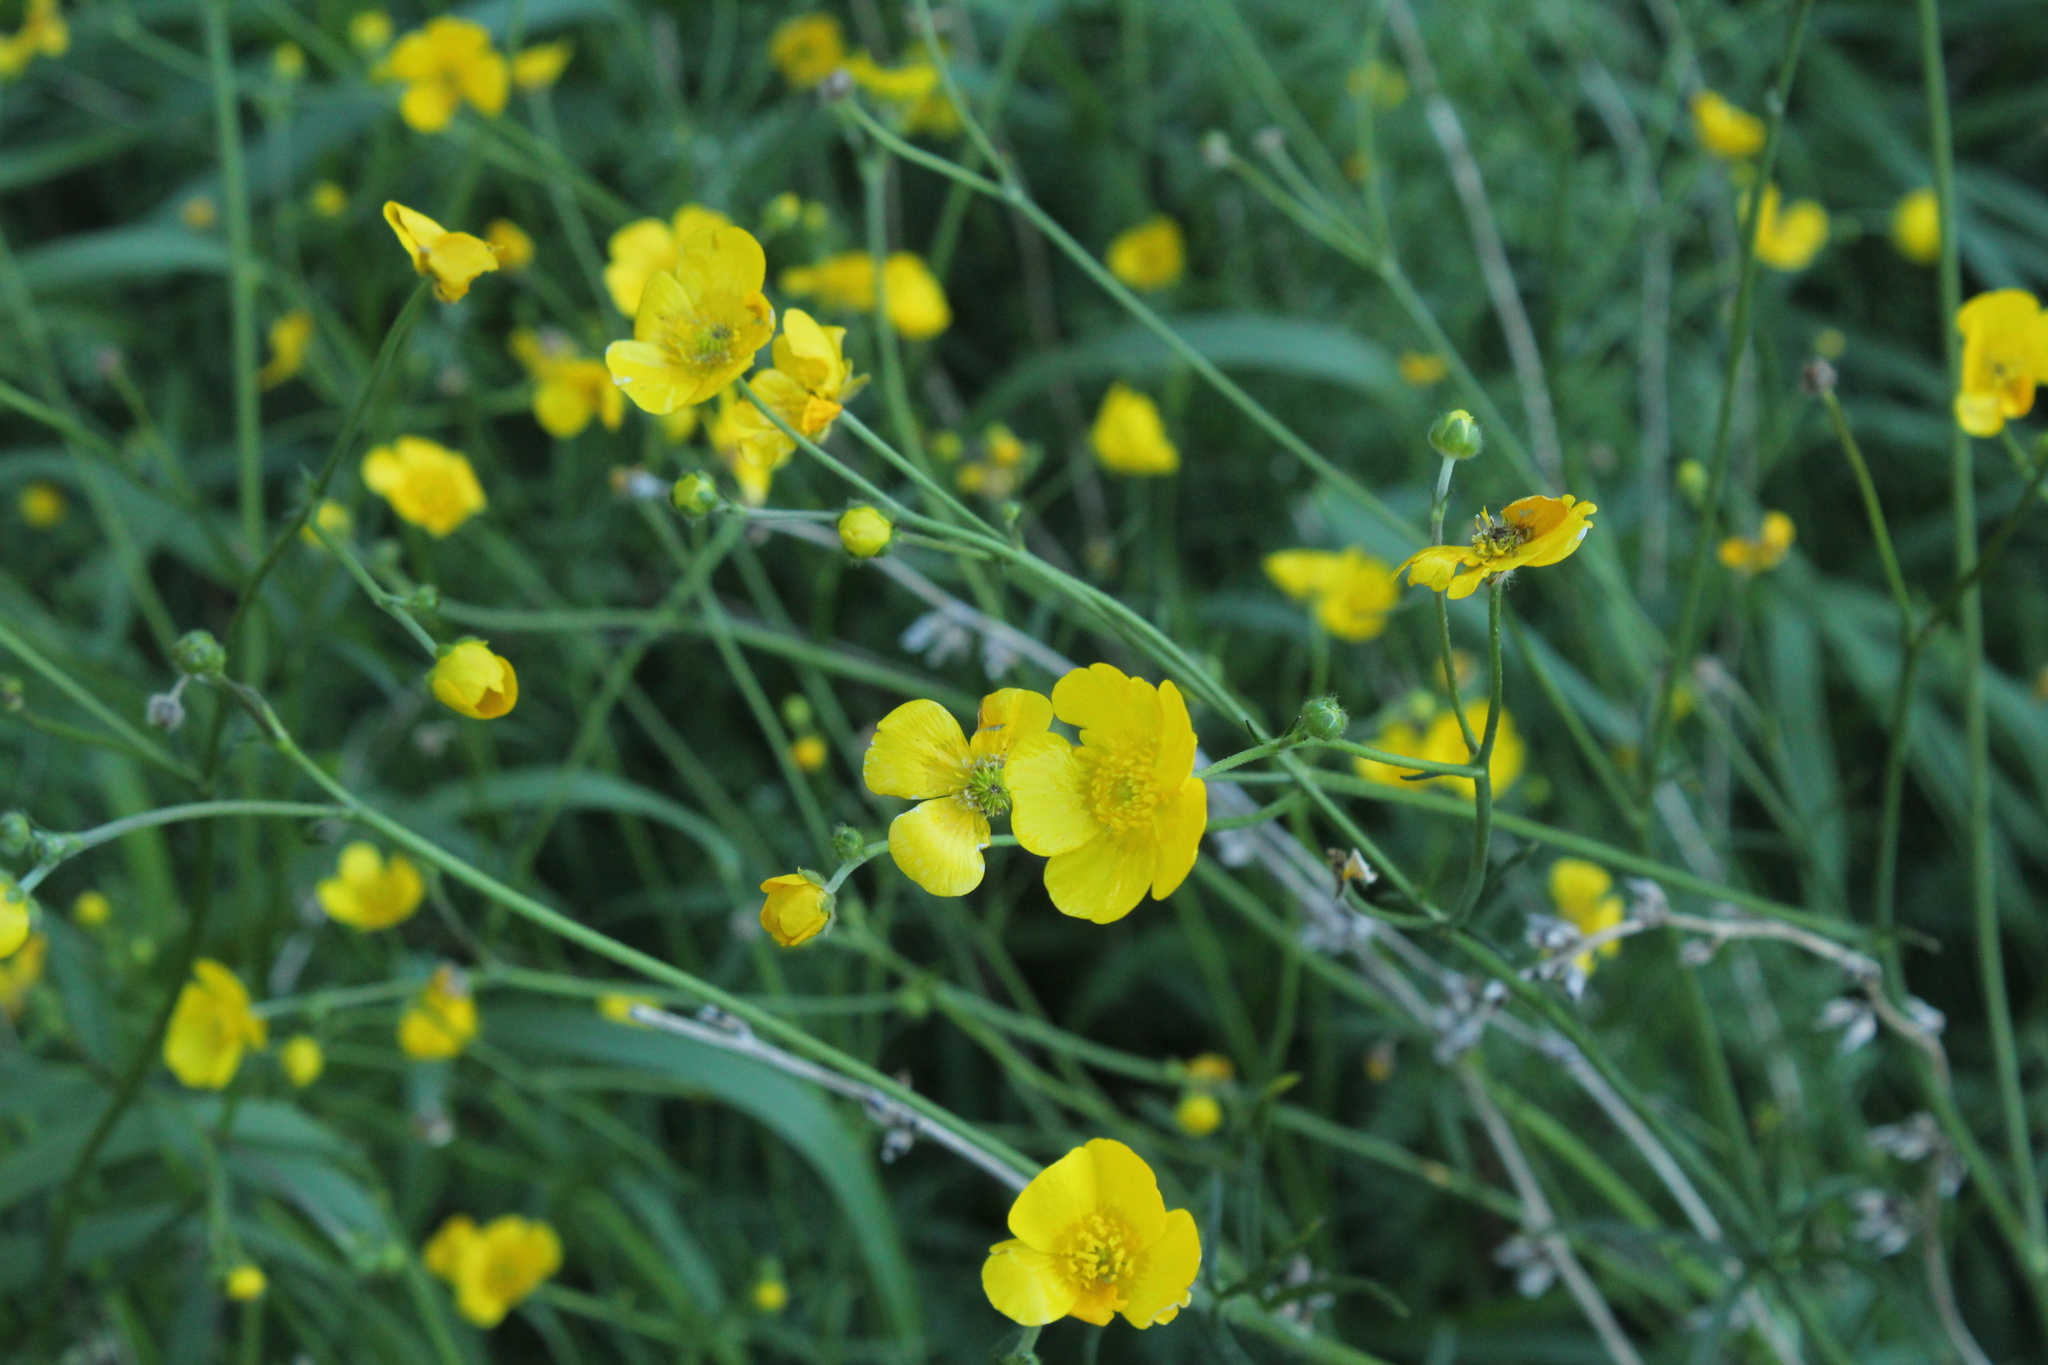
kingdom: Plantae
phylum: Tracheophyta
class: Magnoliopsida
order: Ranunculales
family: Ranunculaceae
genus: Ranunculus
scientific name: Ranunculus acris
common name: Meadow buttercup
